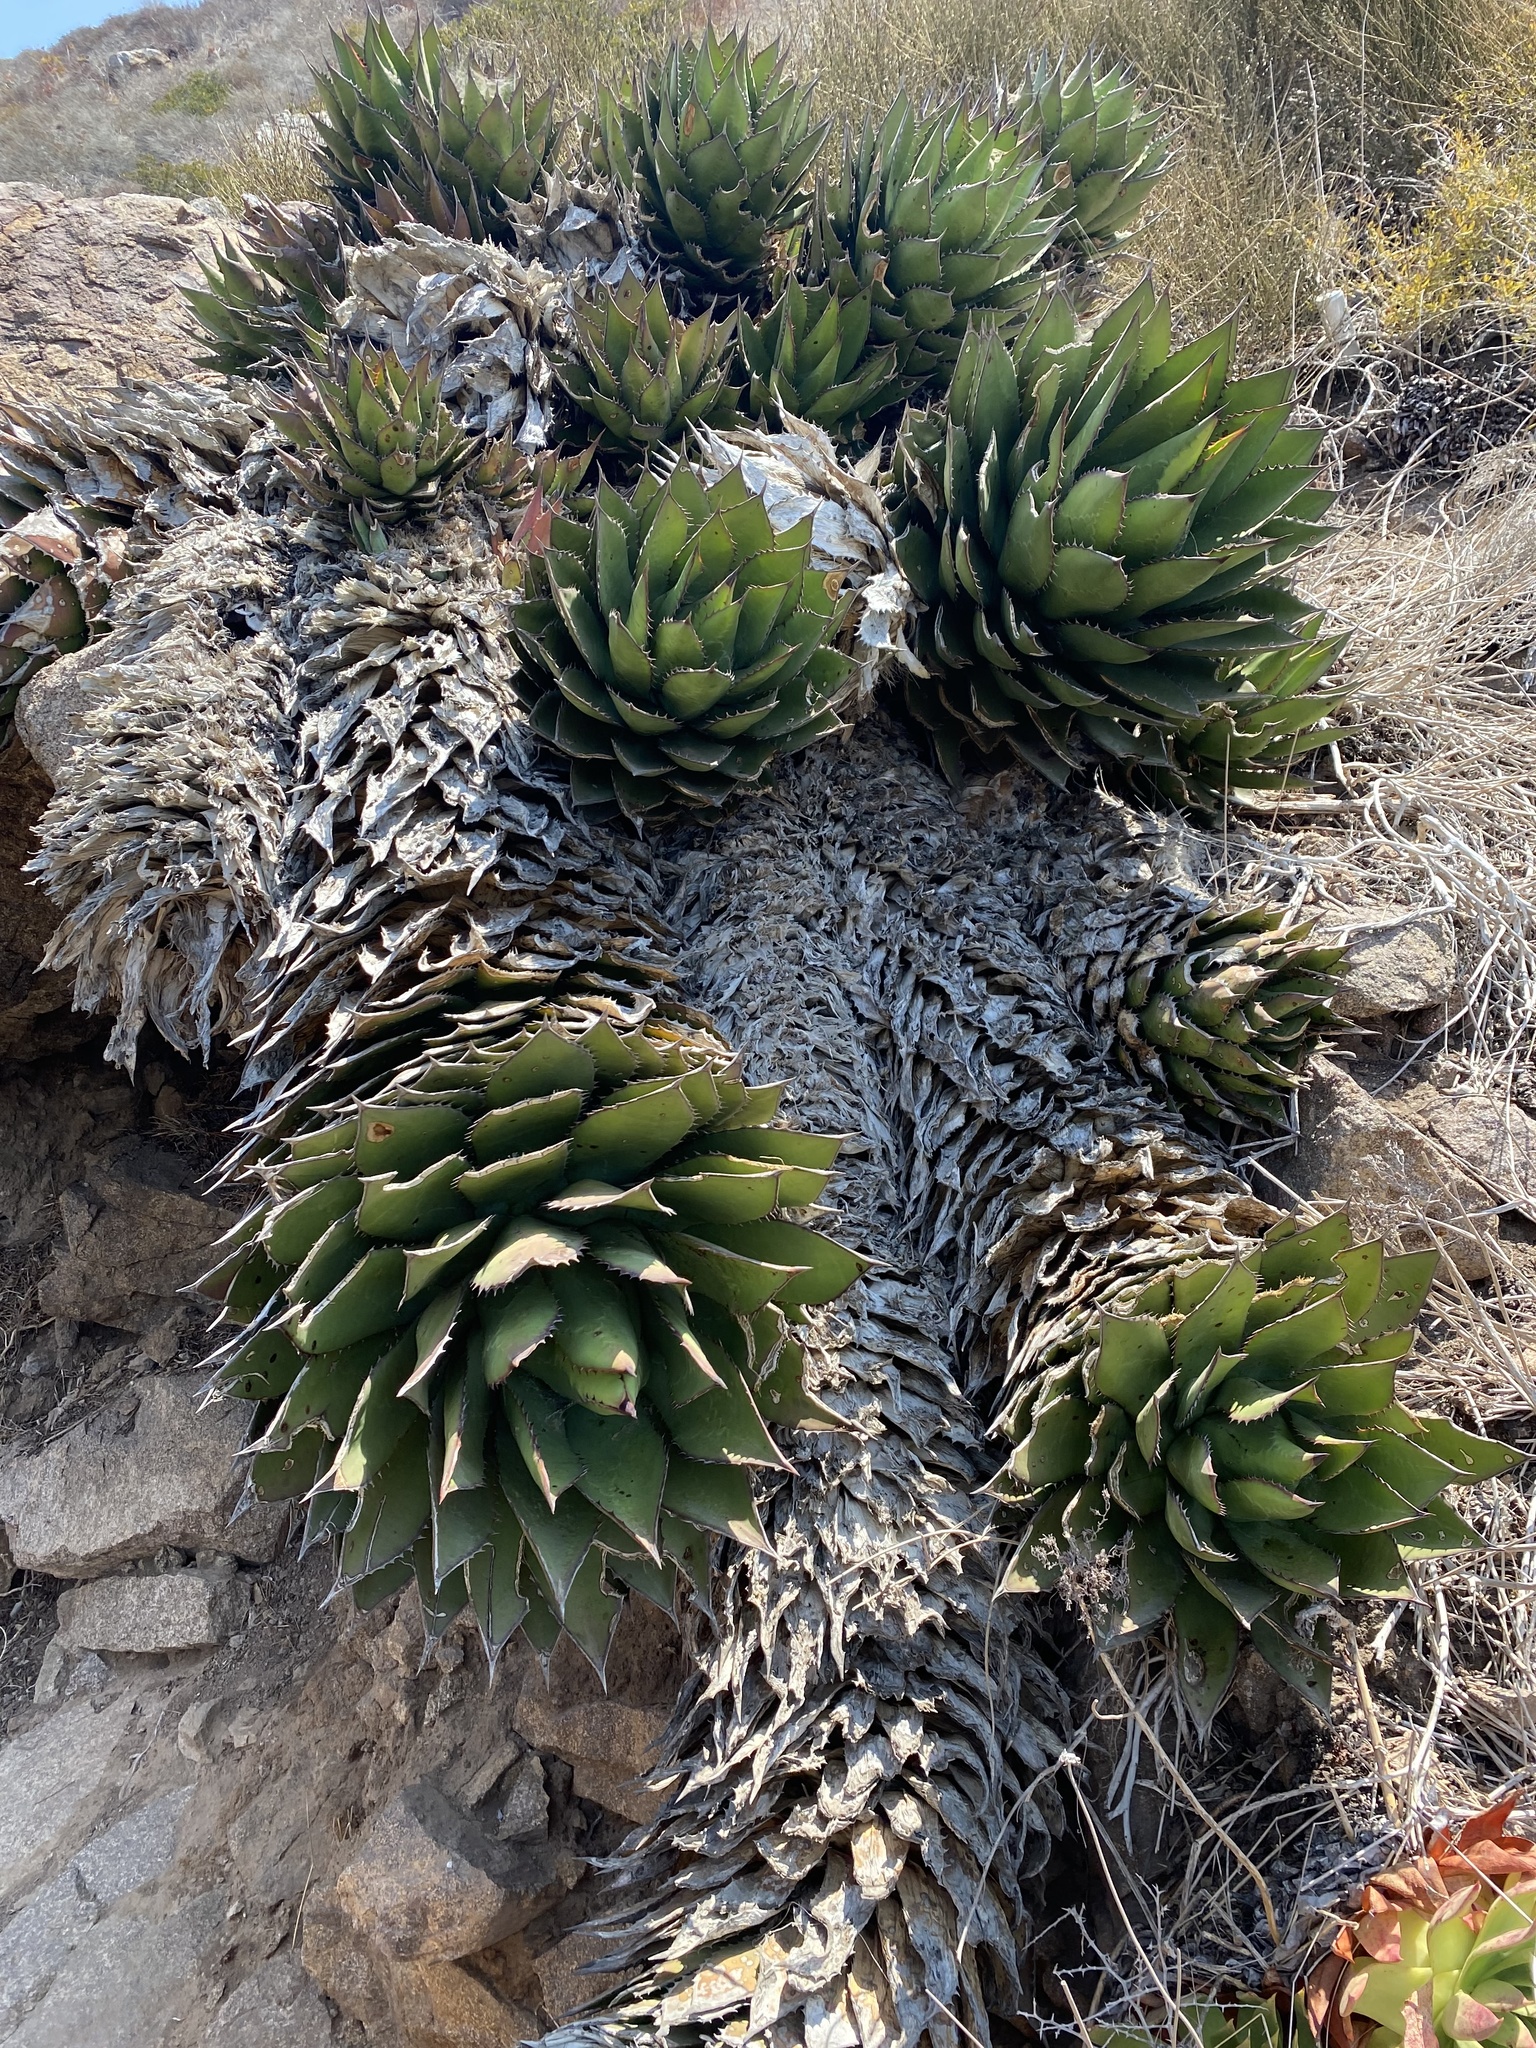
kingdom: Plantae
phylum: Tracheophyta
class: Liliopsida
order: Asparagales
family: Asparagaceae
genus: Agave
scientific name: Agave shawii
